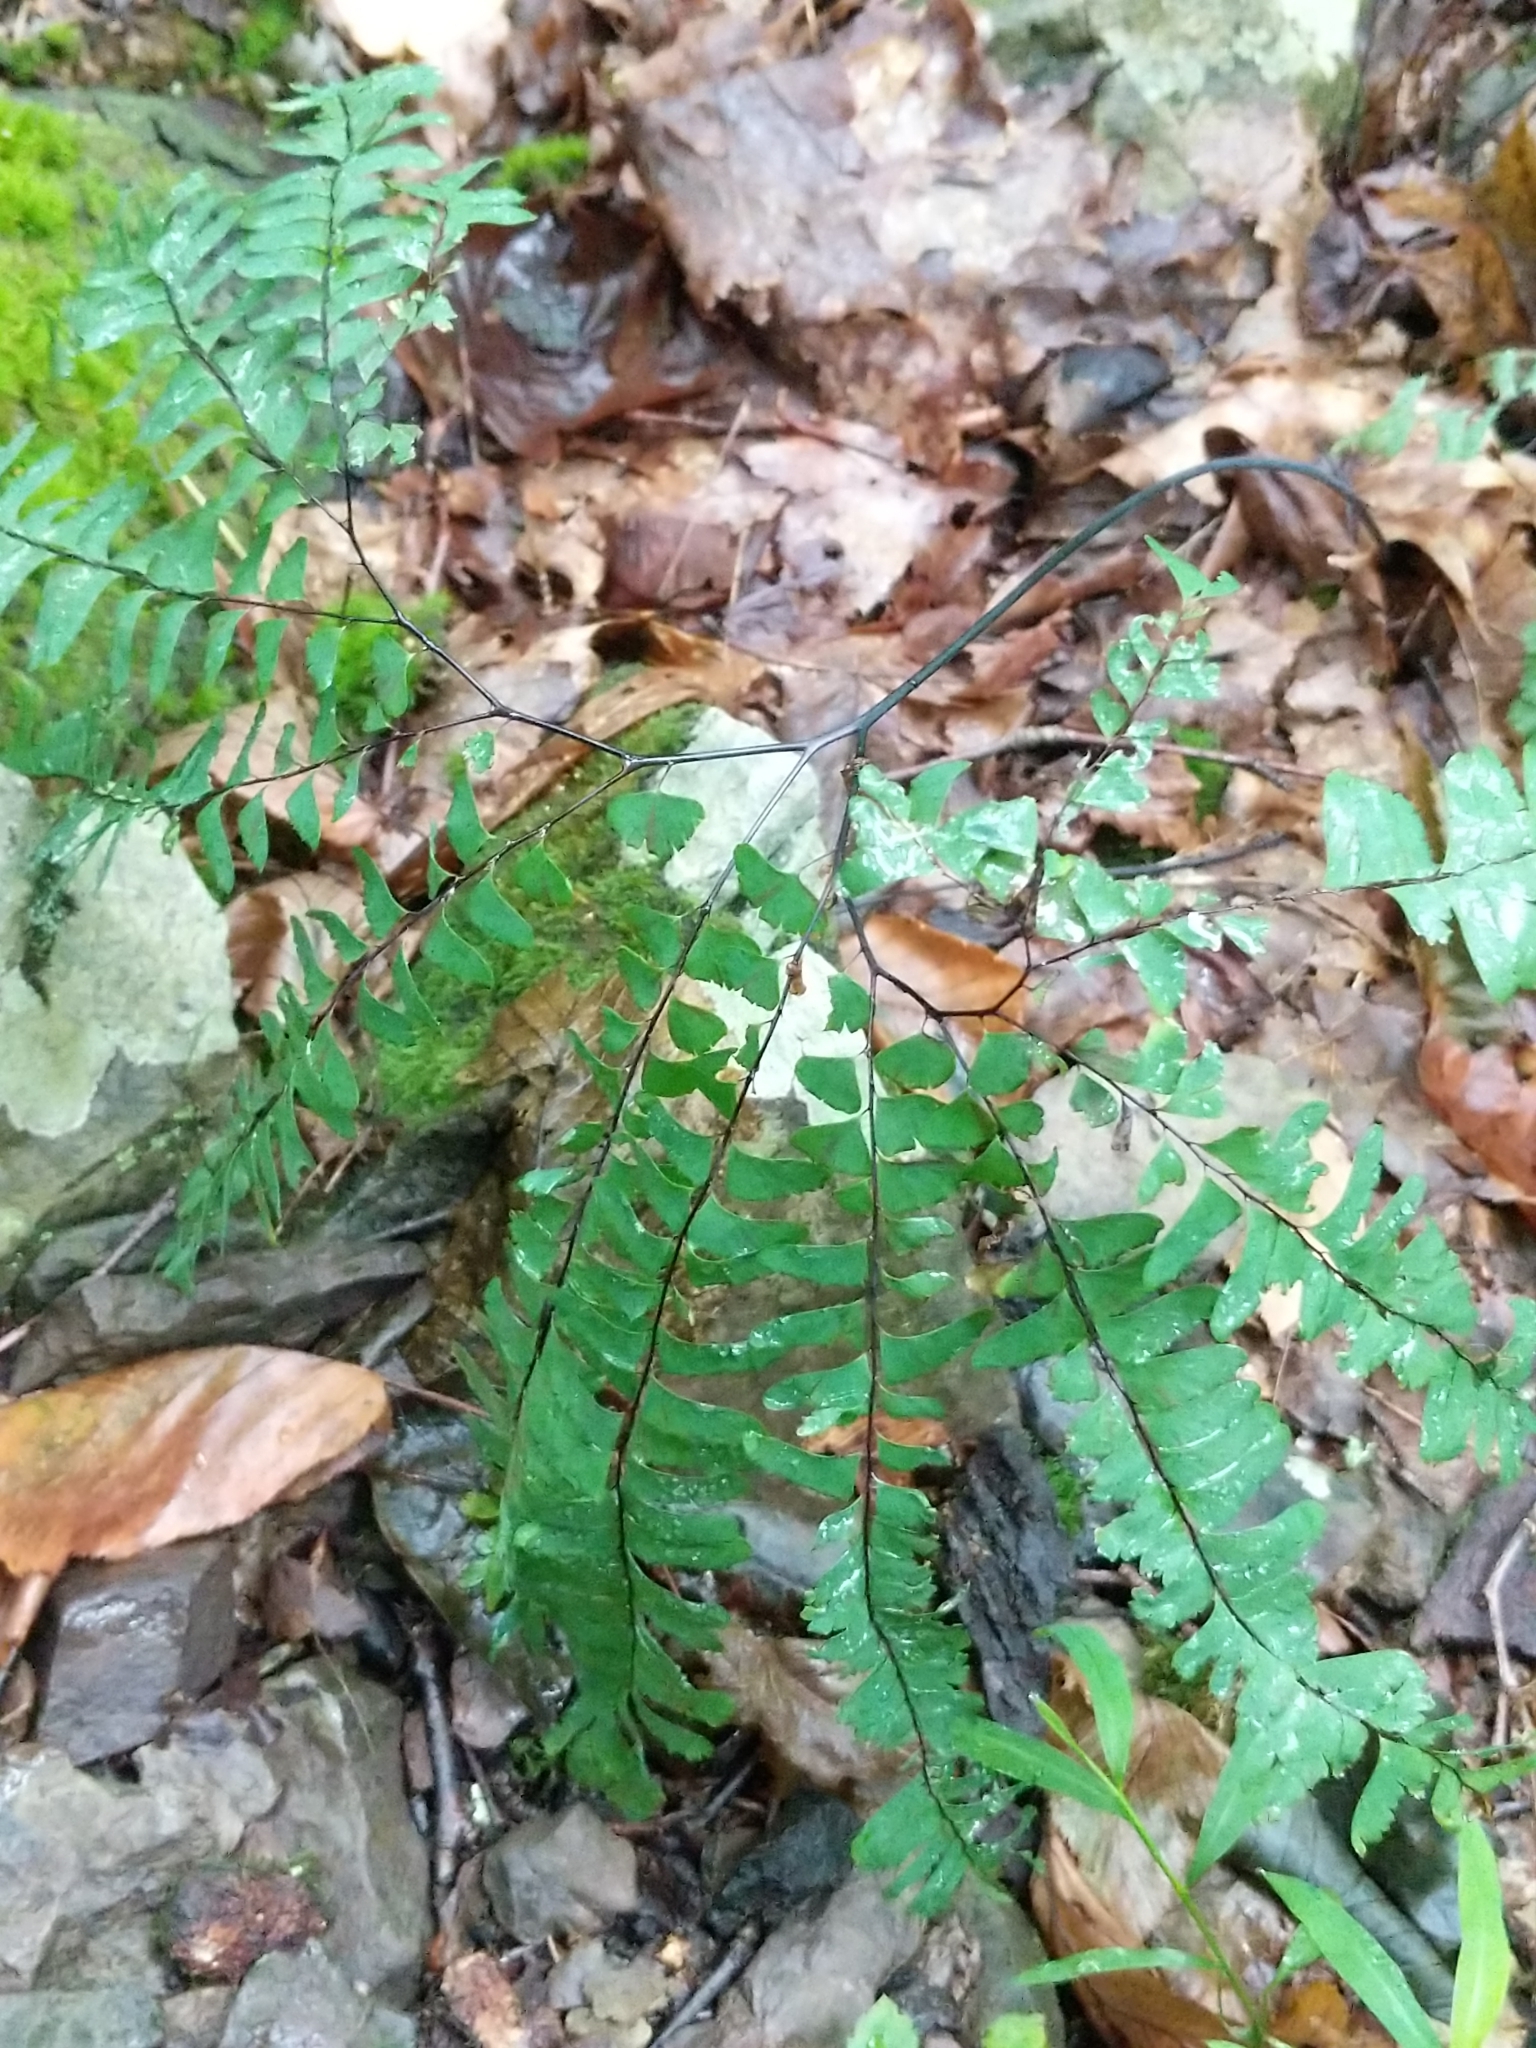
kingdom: Plantae
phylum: Tracheophyta
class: Polypodiopsida
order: Polypodiales
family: Pteridaceae
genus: Adiantum
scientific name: Adiantum pedatum
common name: Five-finger fern
